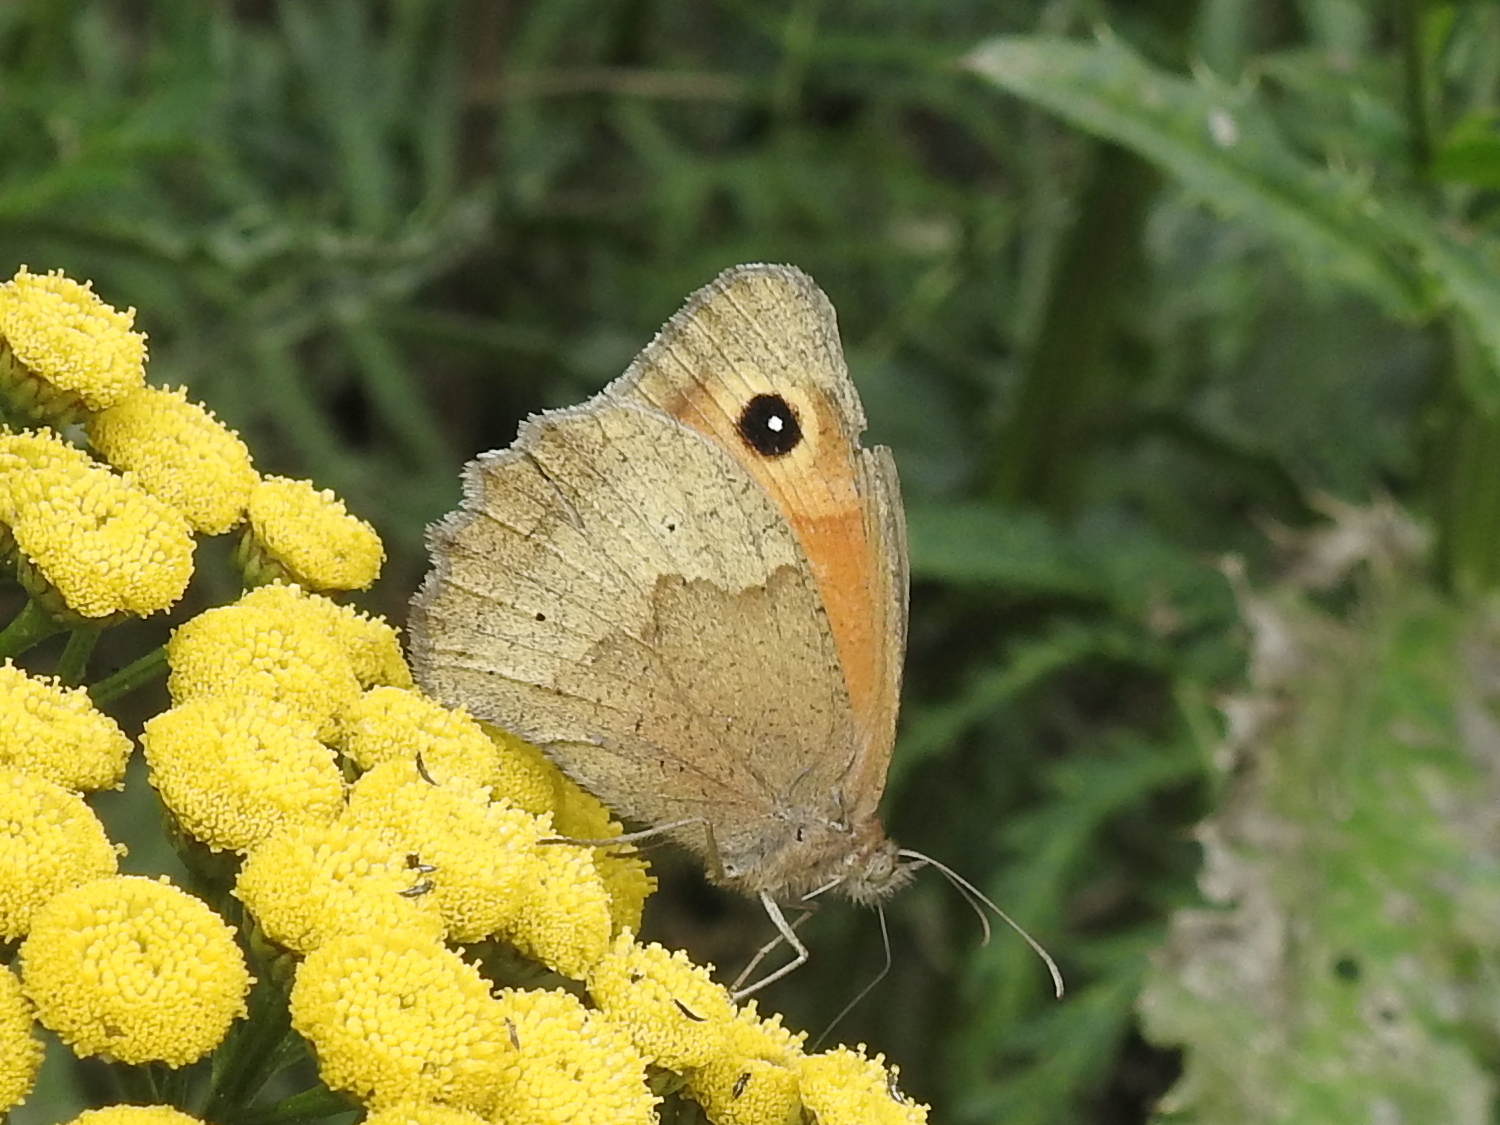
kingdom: Animalia
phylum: Arthropoda
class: Insecta
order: Lepidoptera
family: Nymphalidae
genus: Maniola
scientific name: Maniola jurtina
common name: Meadow brown
